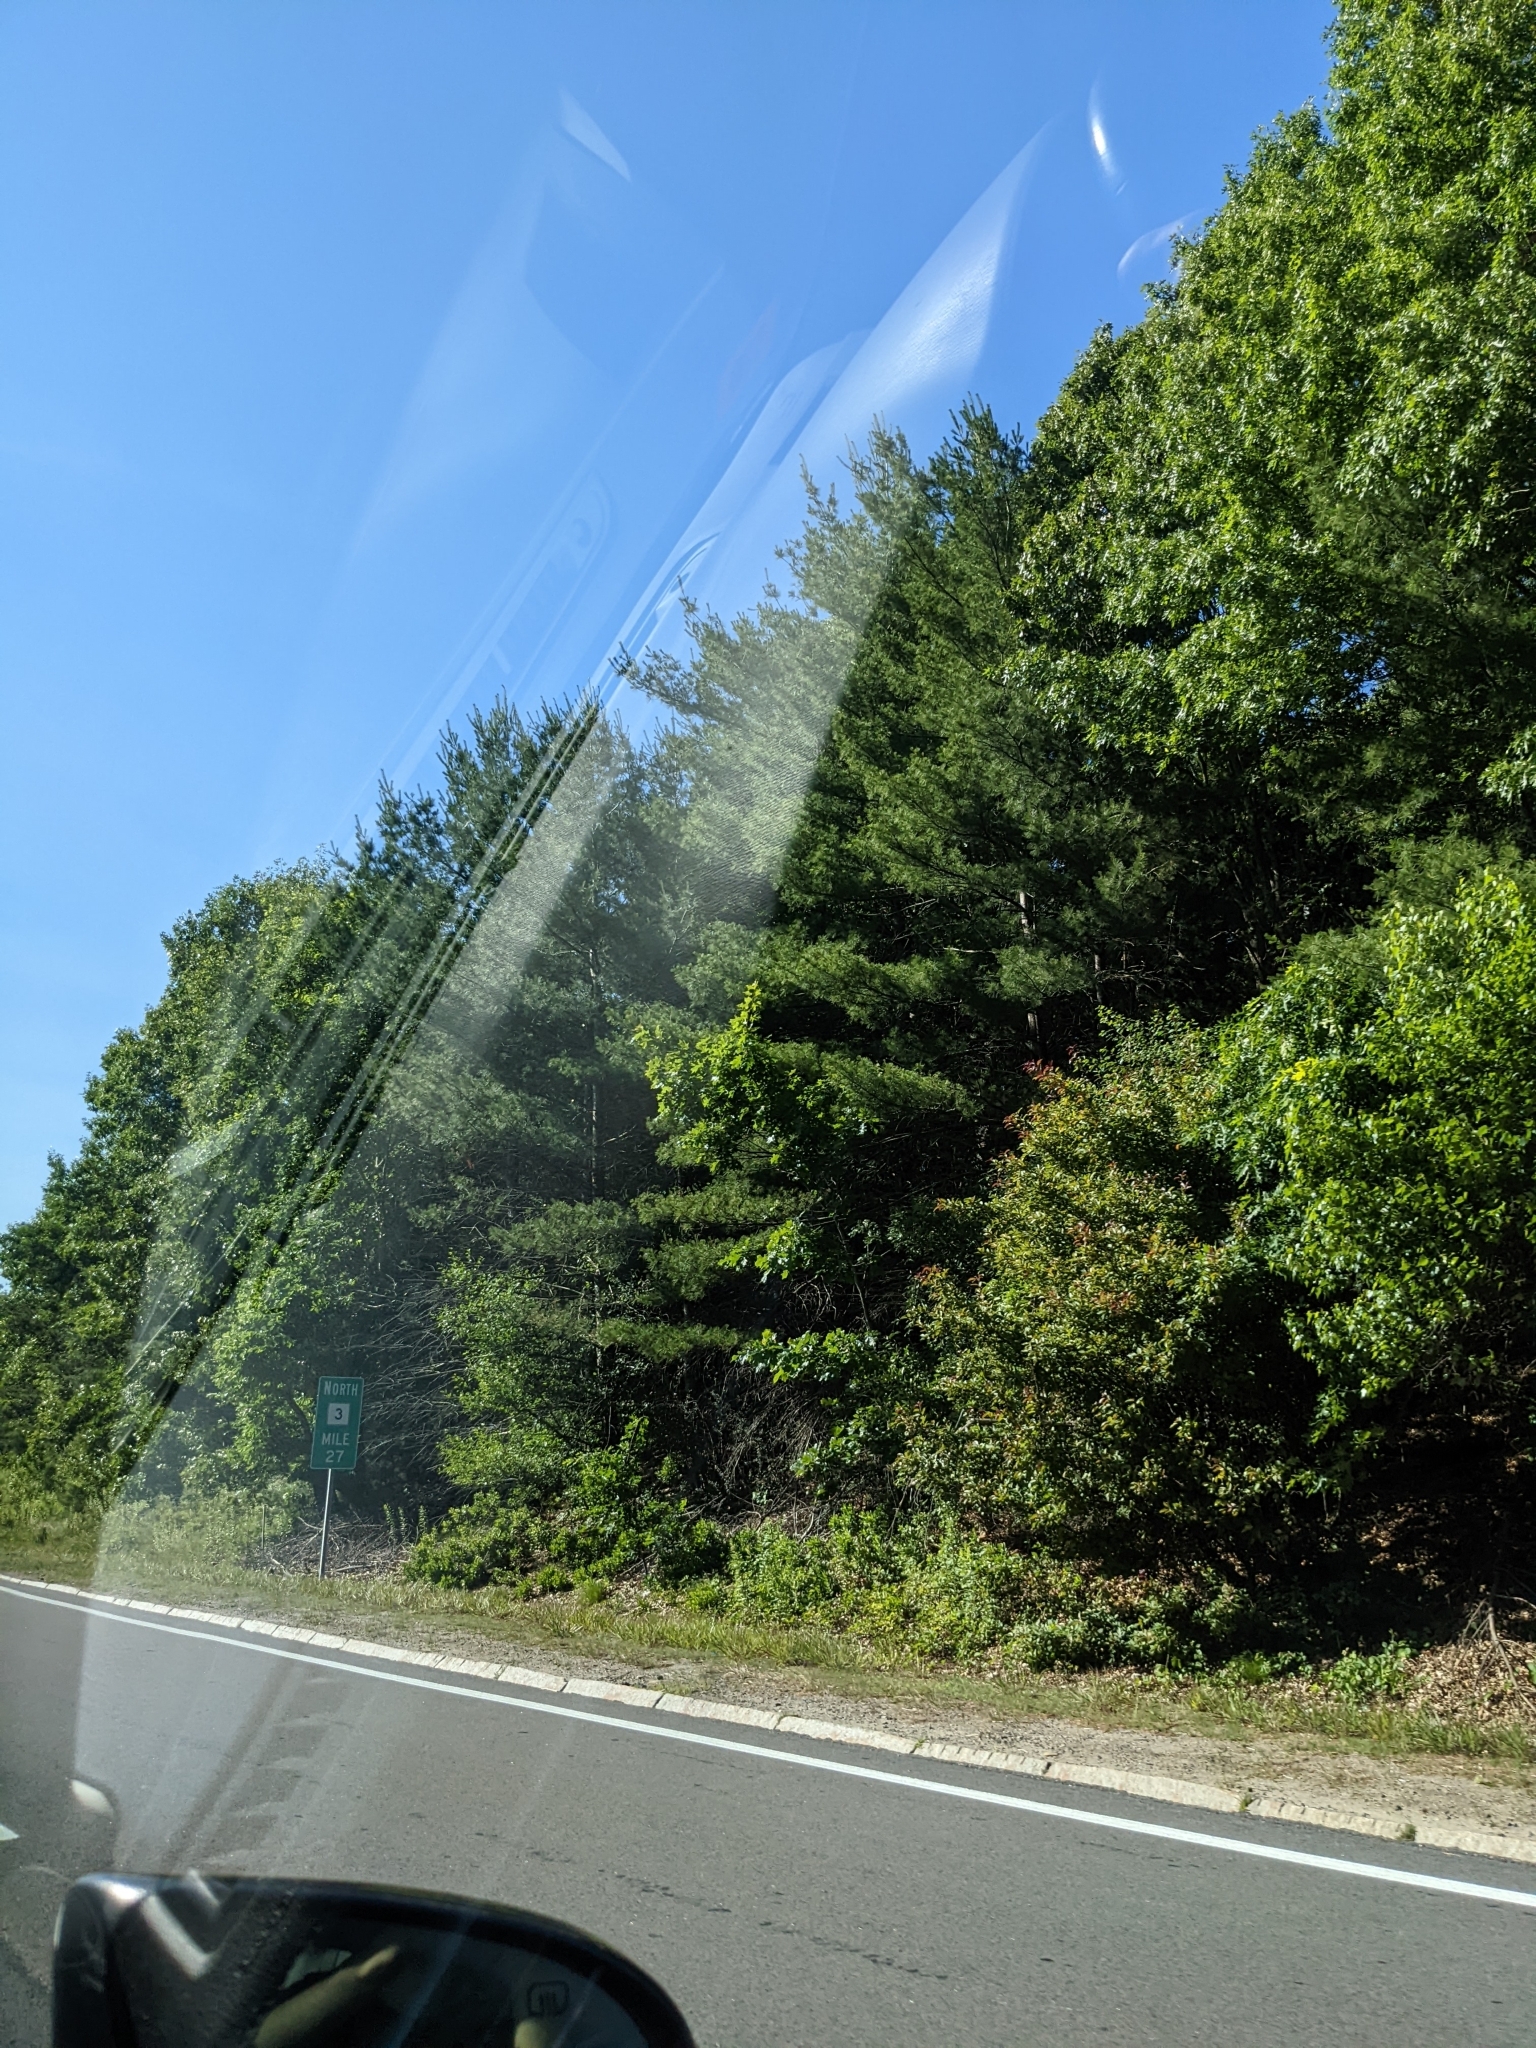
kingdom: Plantae
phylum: Tracheophyta
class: Pinopsida
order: Pinales
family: Pinaceae
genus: Pinus
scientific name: Pinus strobus
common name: Weymouth pine
